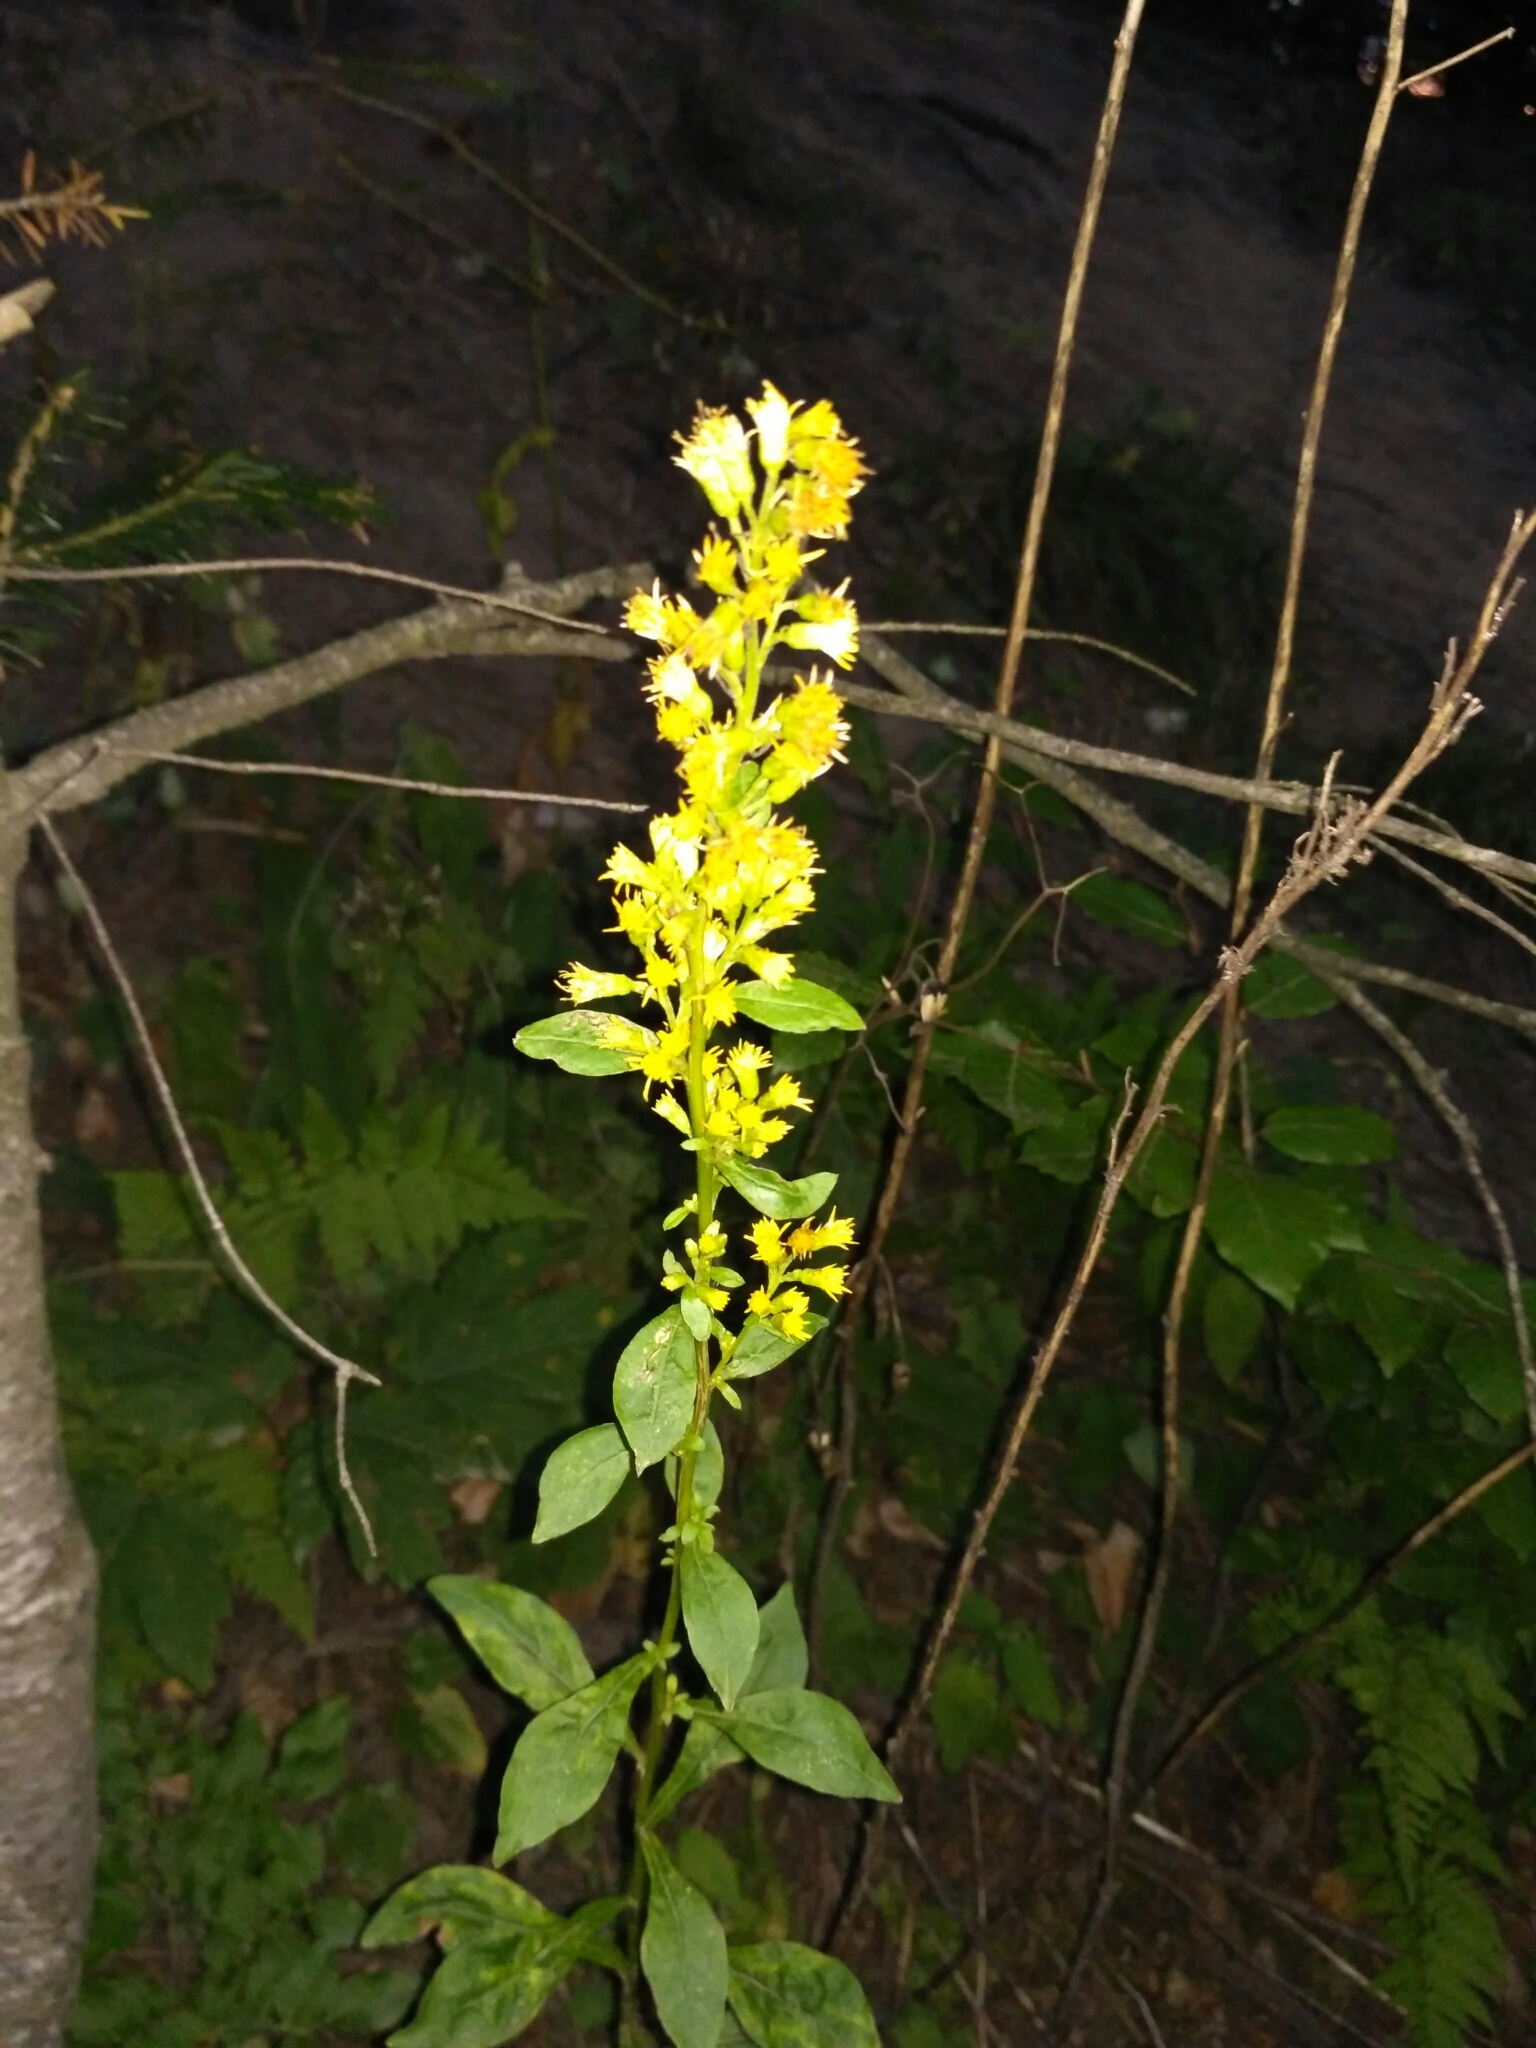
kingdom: Plantae
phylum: Tracheophyta
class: Magnoliopsida
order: Asterales
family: Asteraceae
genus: Solidago
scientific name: Solidago virgaurea
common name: Goldenrod
